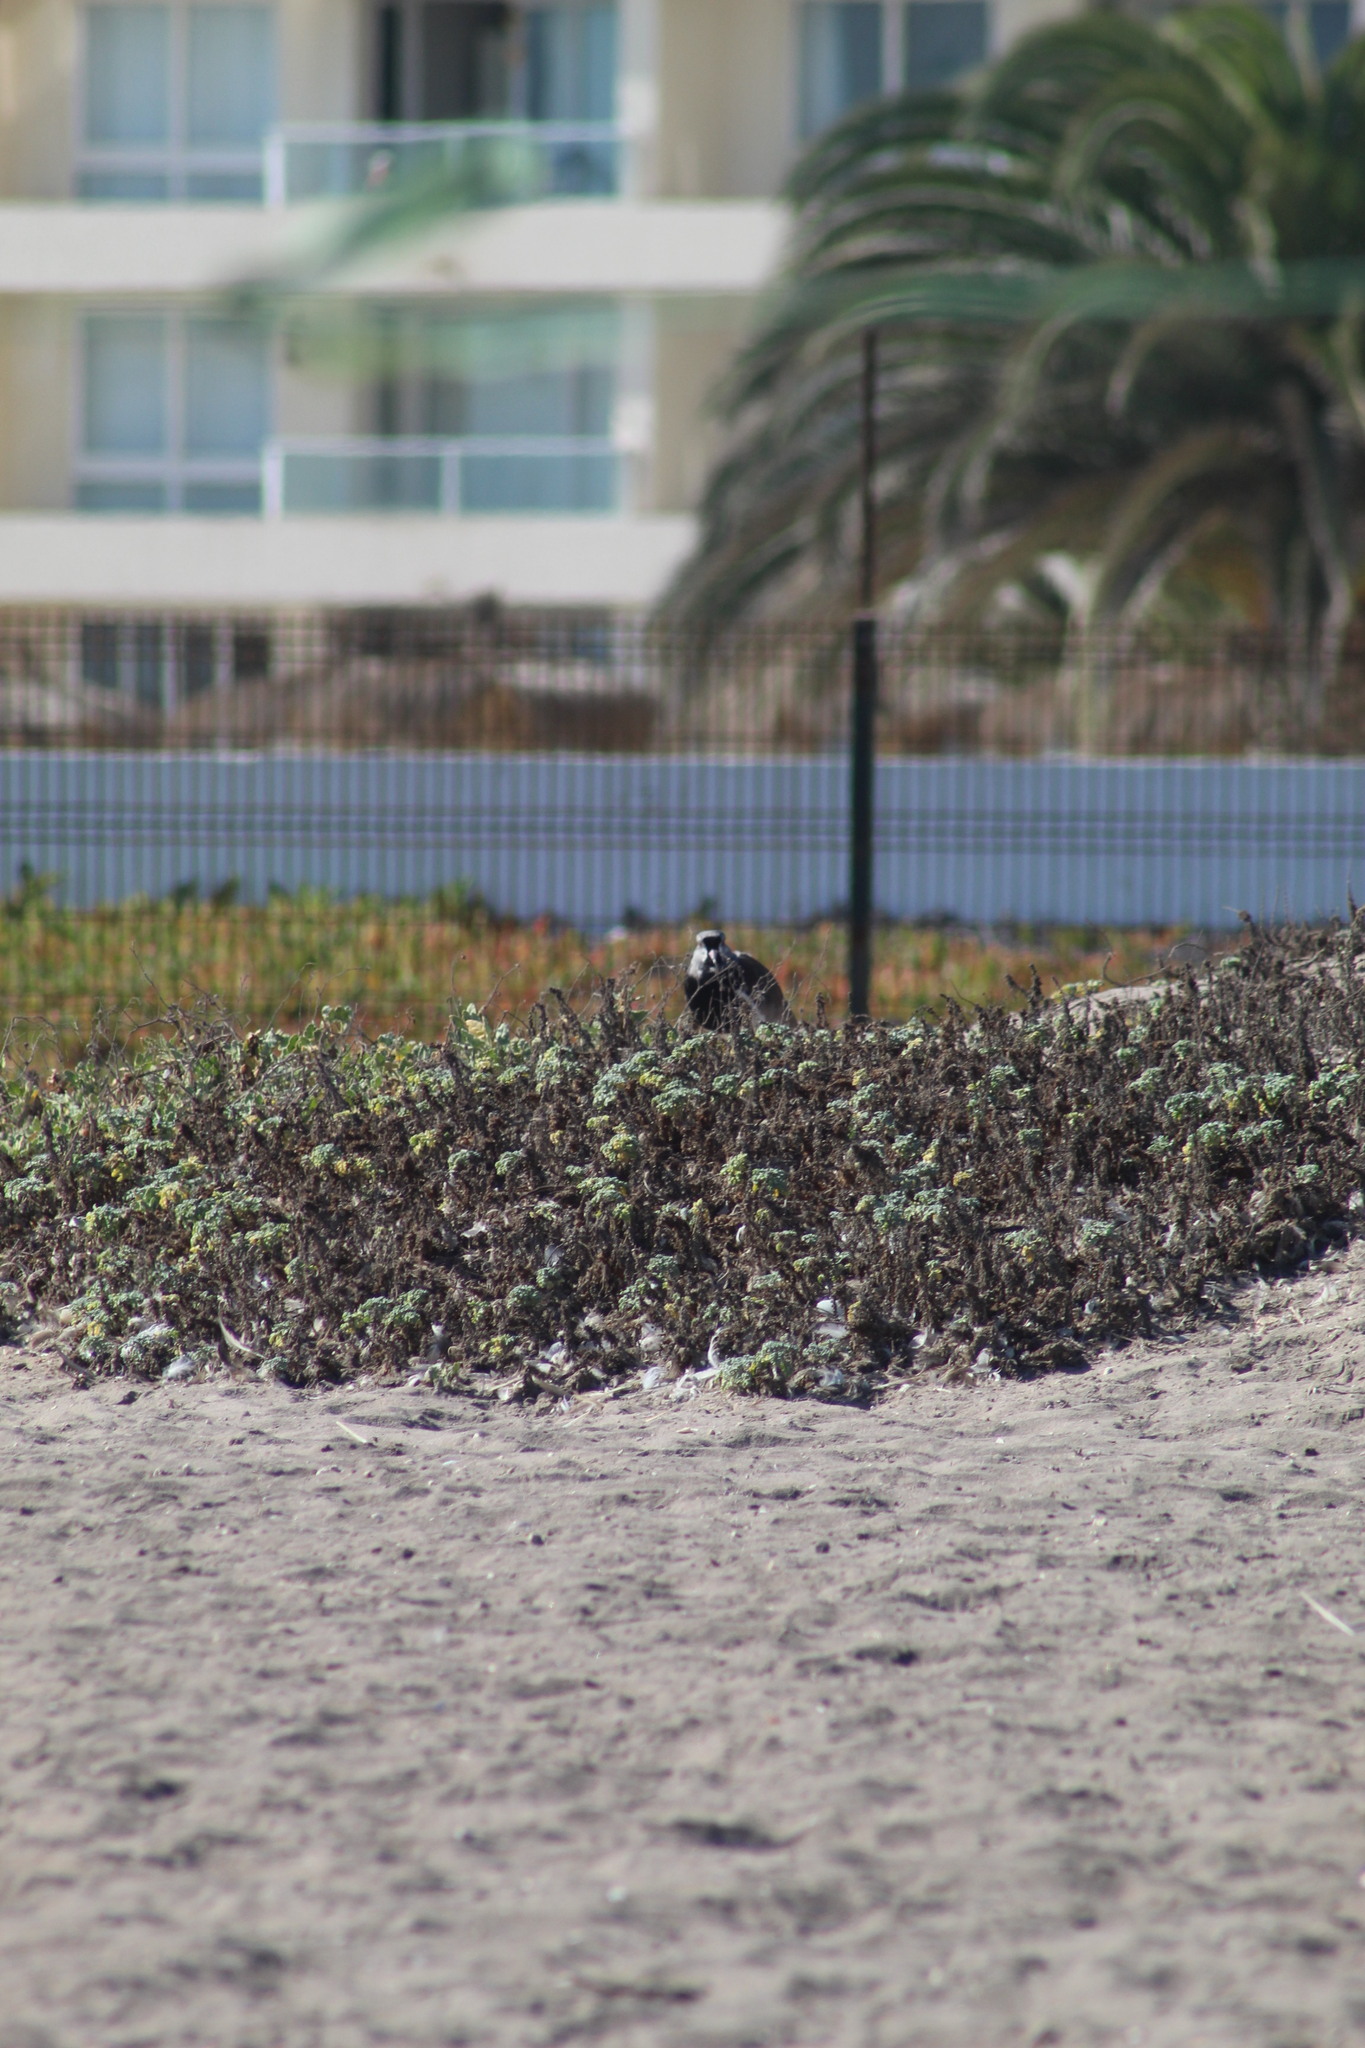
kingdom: Animalia
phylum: Chordata
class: Aves
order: Charadriiformes
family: Charadriidae
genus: Vanellus
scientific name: Vanellus chilensis
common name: Southern lapwing
